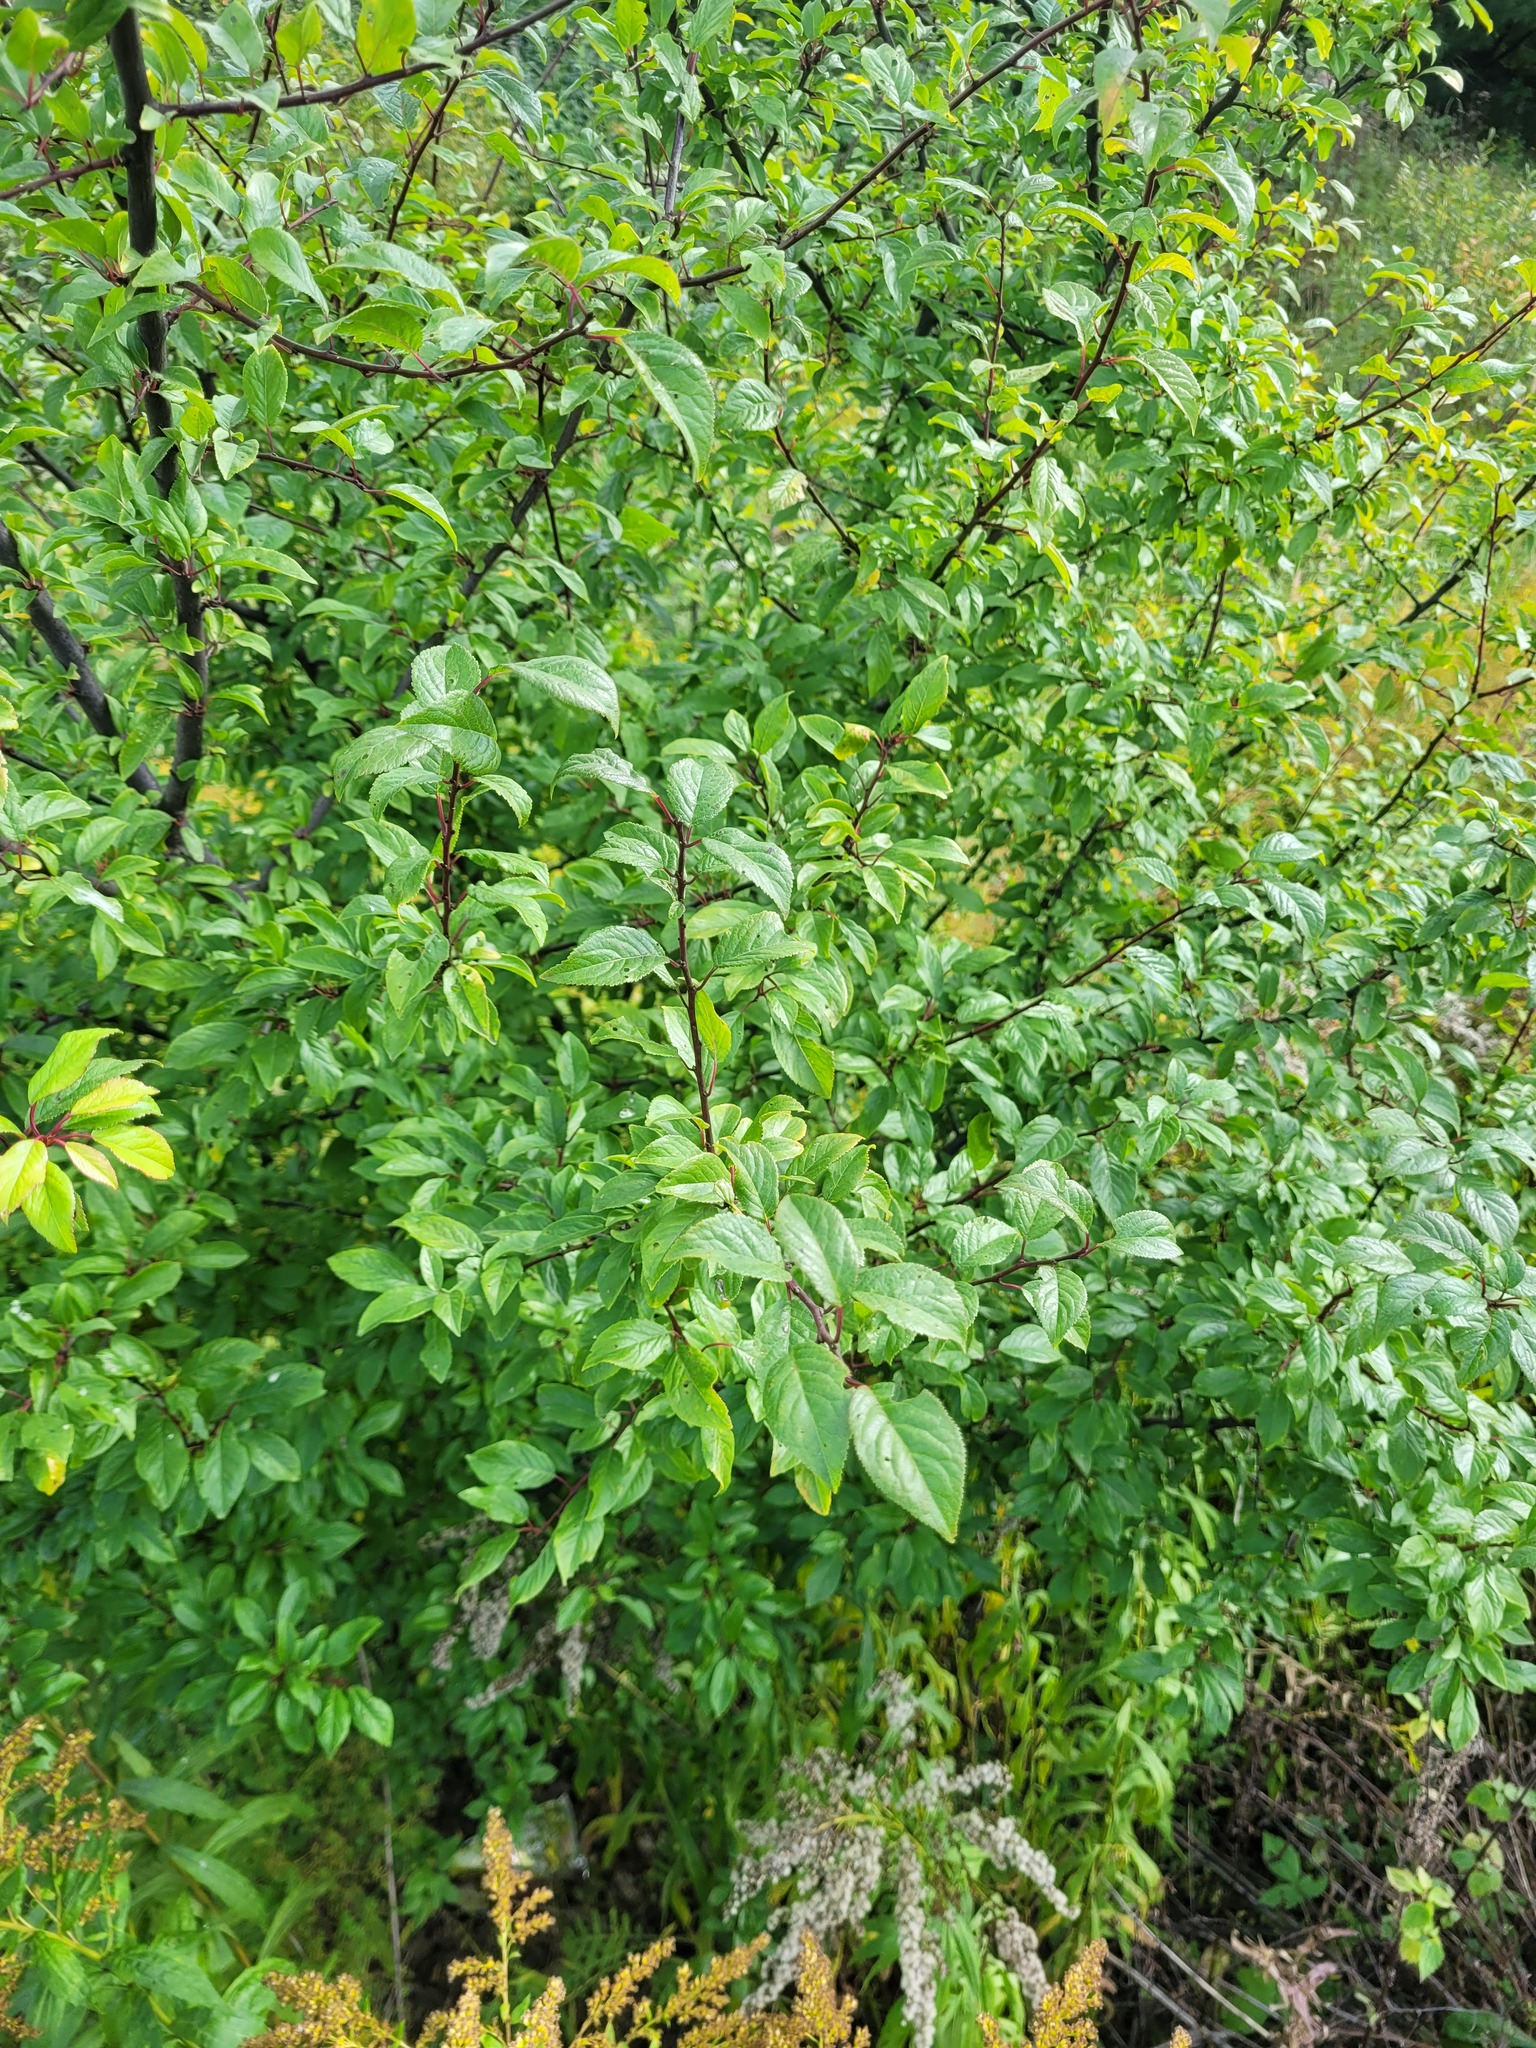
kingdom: Plantae
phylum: Tracheophyta
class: Magnoliopsida
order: Rosales
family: Rosaceae
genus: Prunus
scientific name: Prunus cerasifera
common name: Cherry plum
